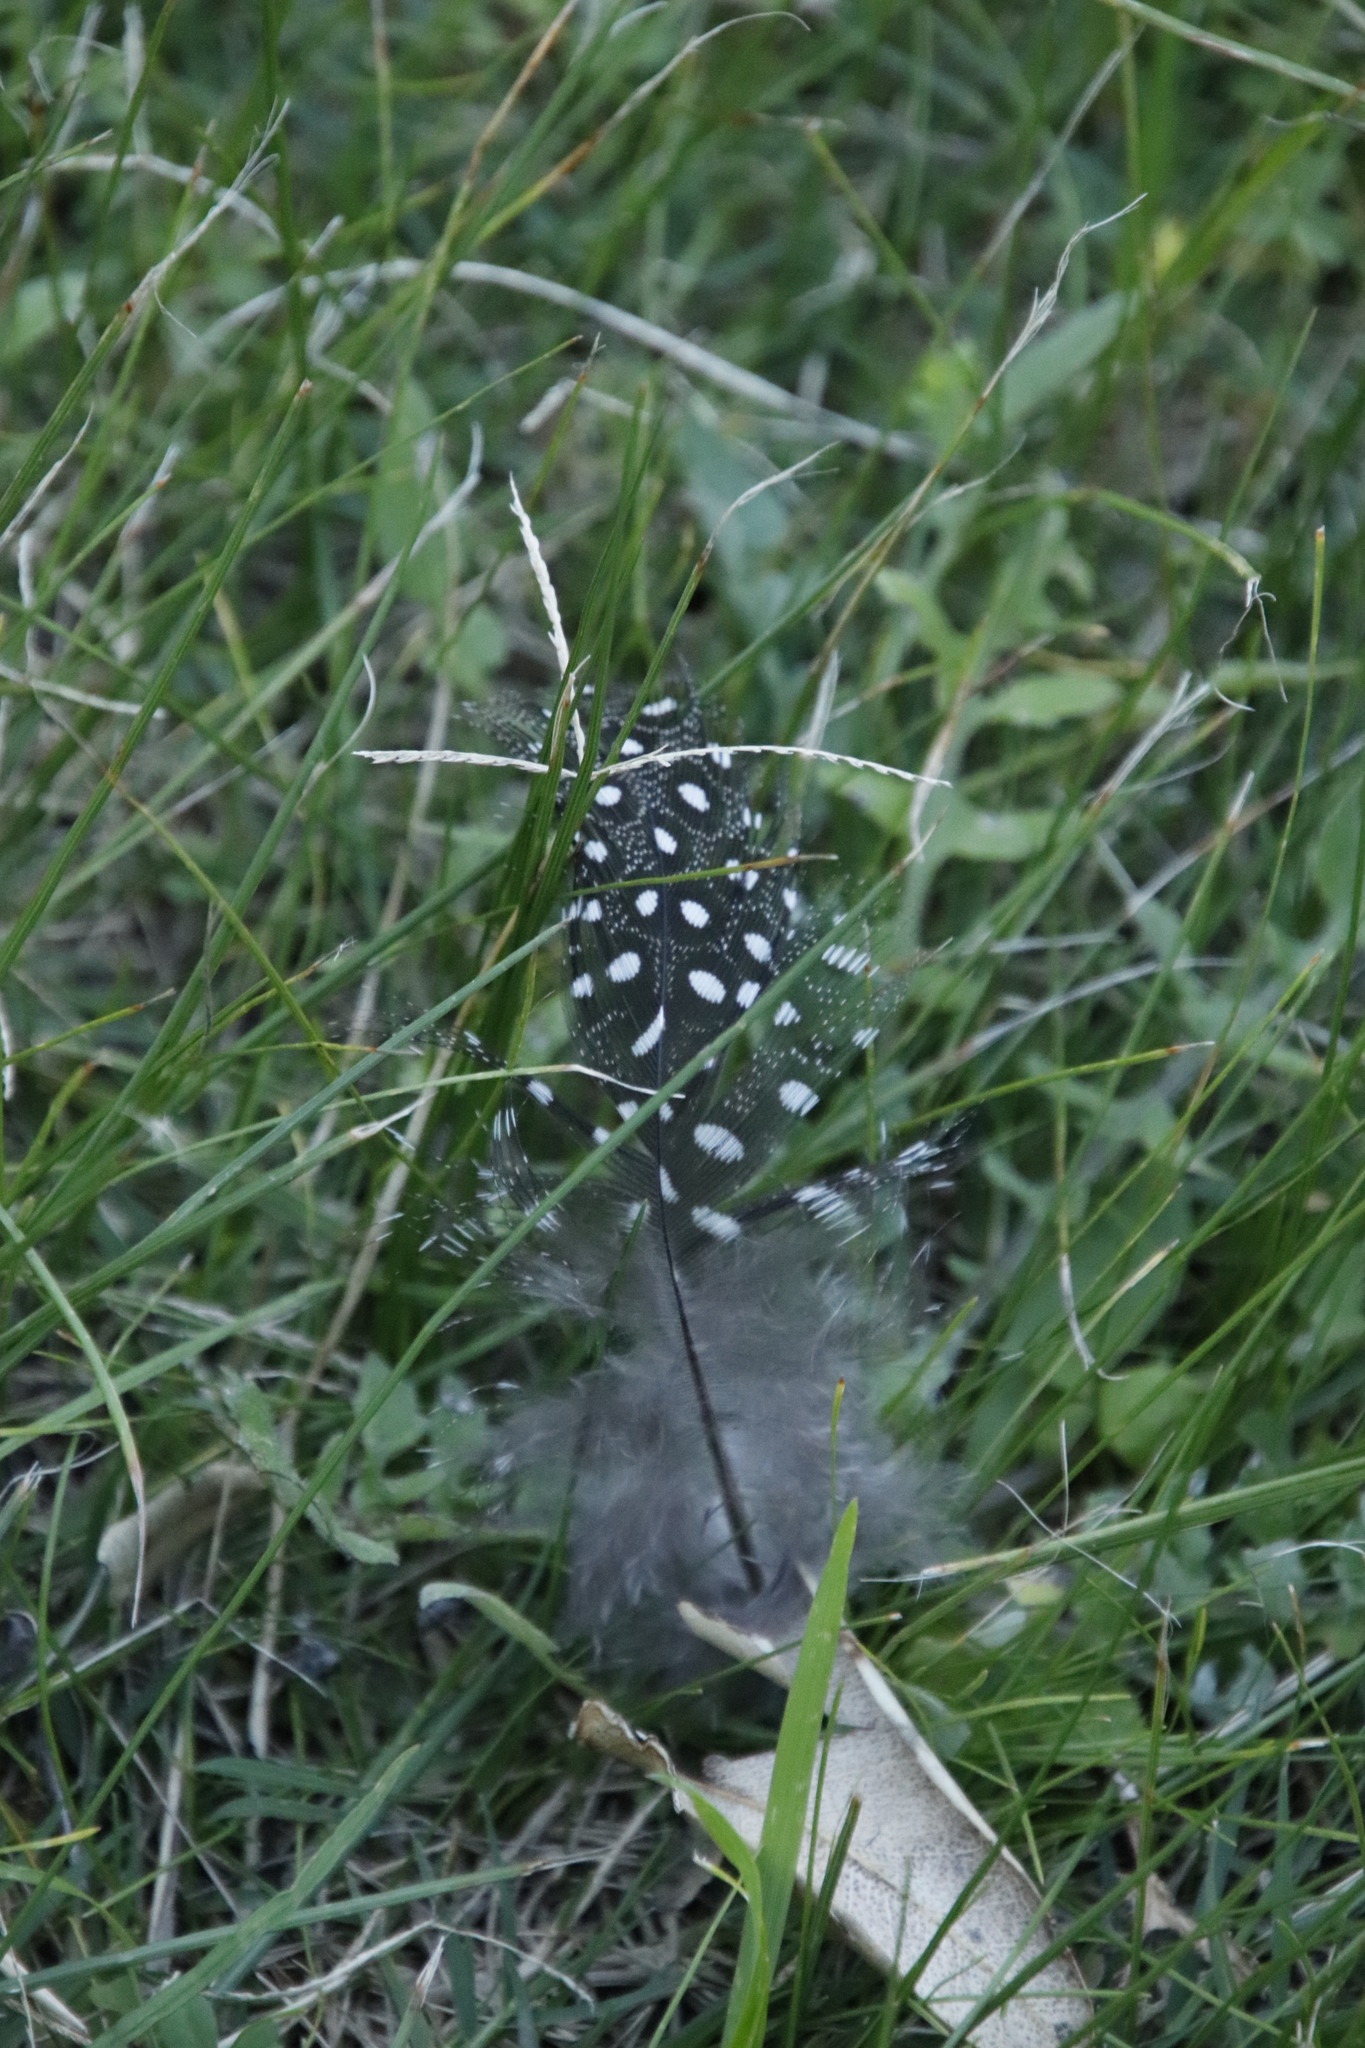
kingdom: Animalia
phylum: Chordata
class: Aves
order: Galliformes
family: Numididae
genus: Numida
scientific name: Numida meleagris
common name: Helmeted guineafowl
